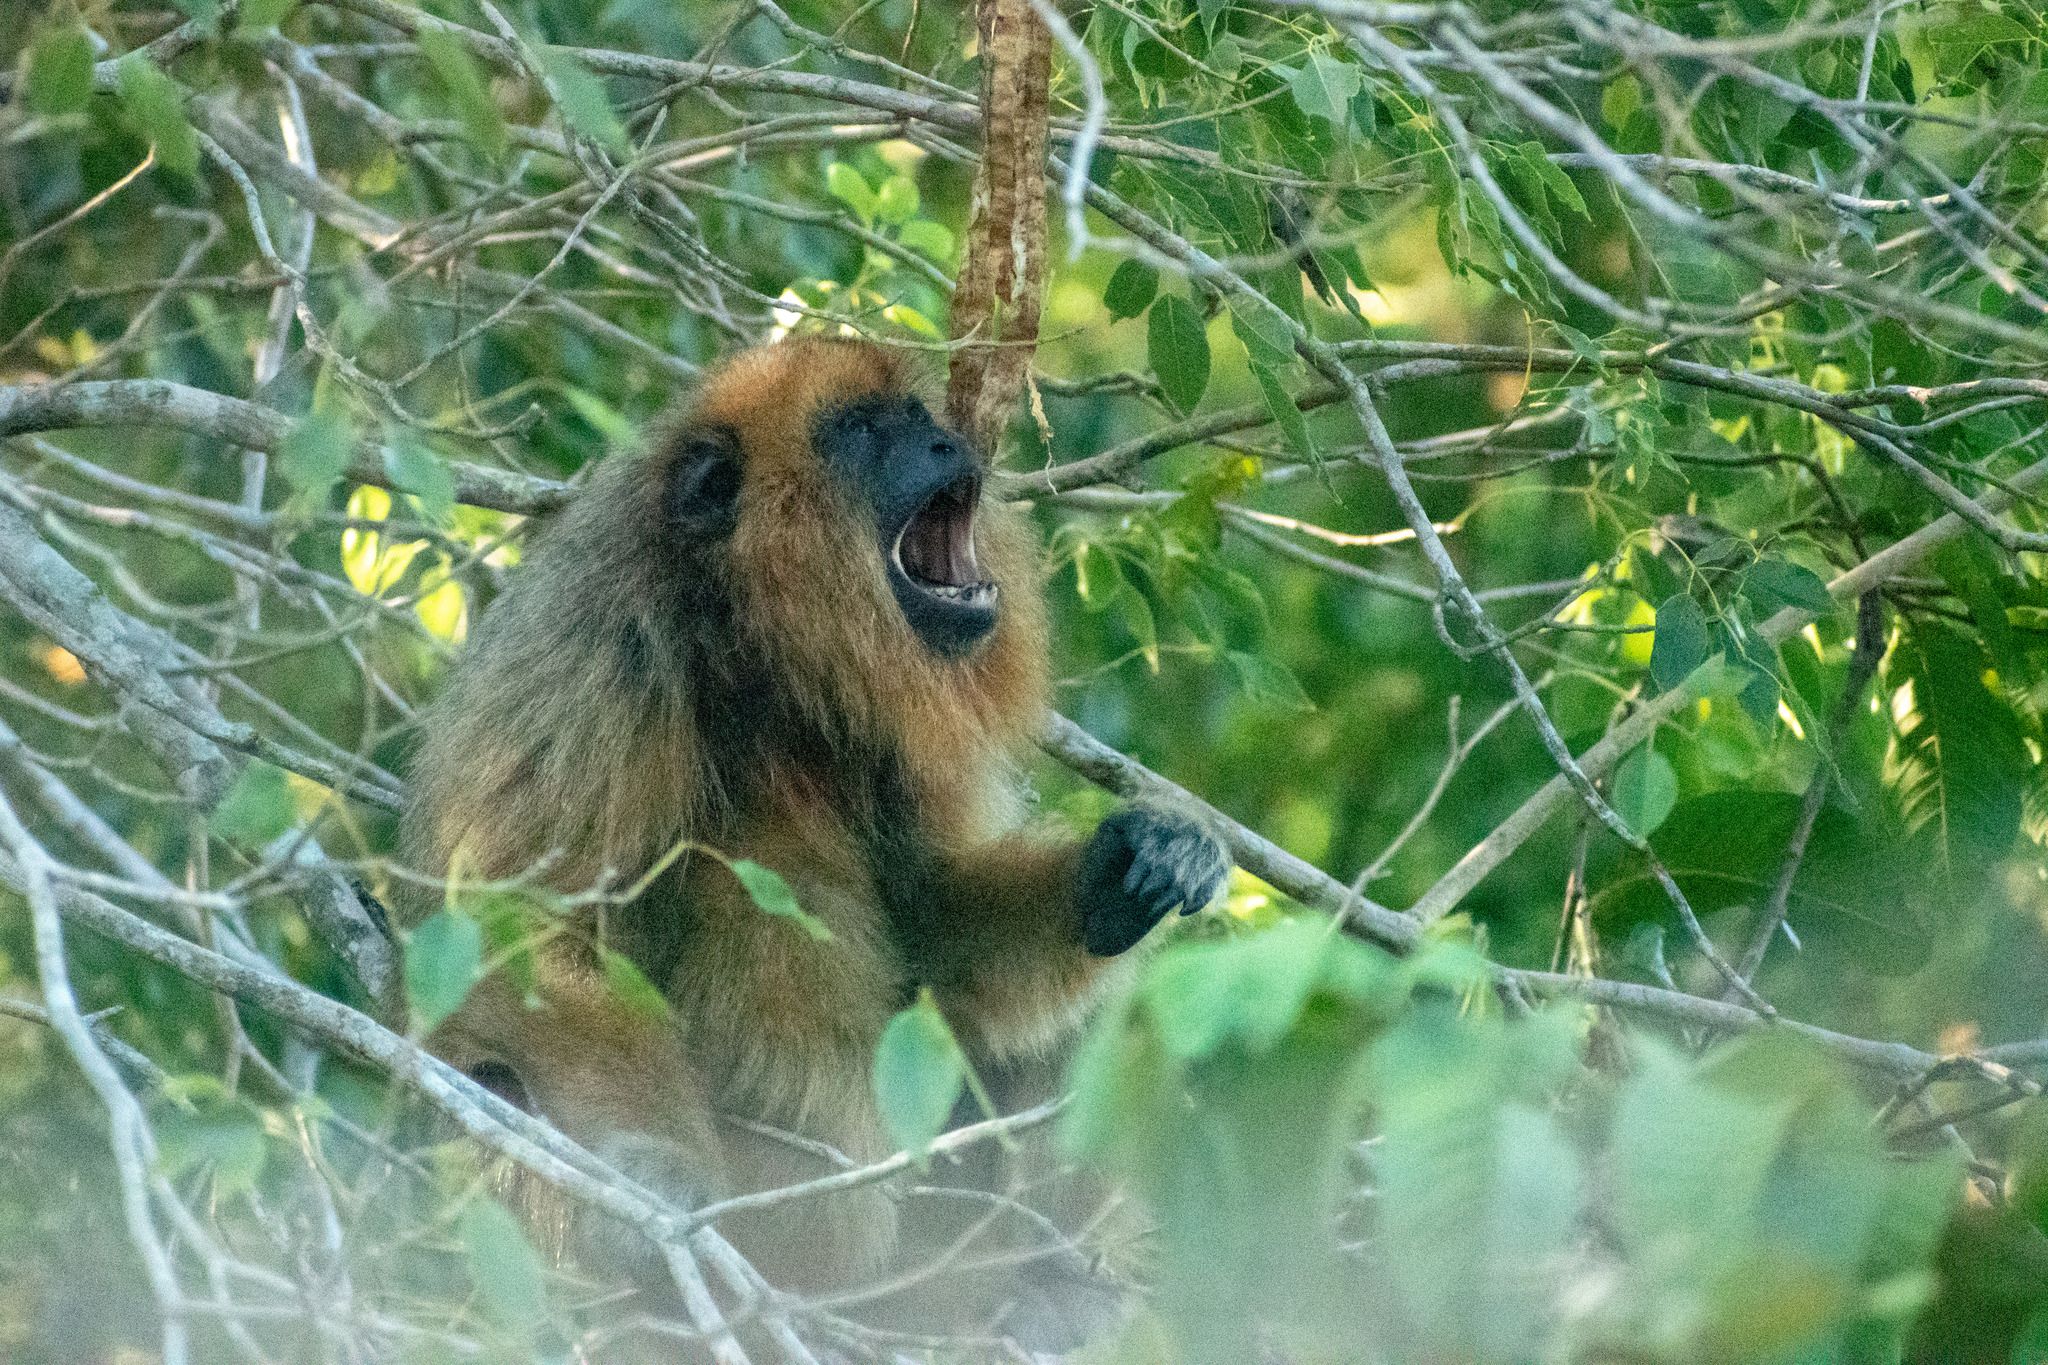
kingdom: Animalia
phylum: Chordata
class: Mammalia
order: Primates
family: Atelidae
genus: Alouatta
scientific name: Alouatta caraya
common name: Black howler
